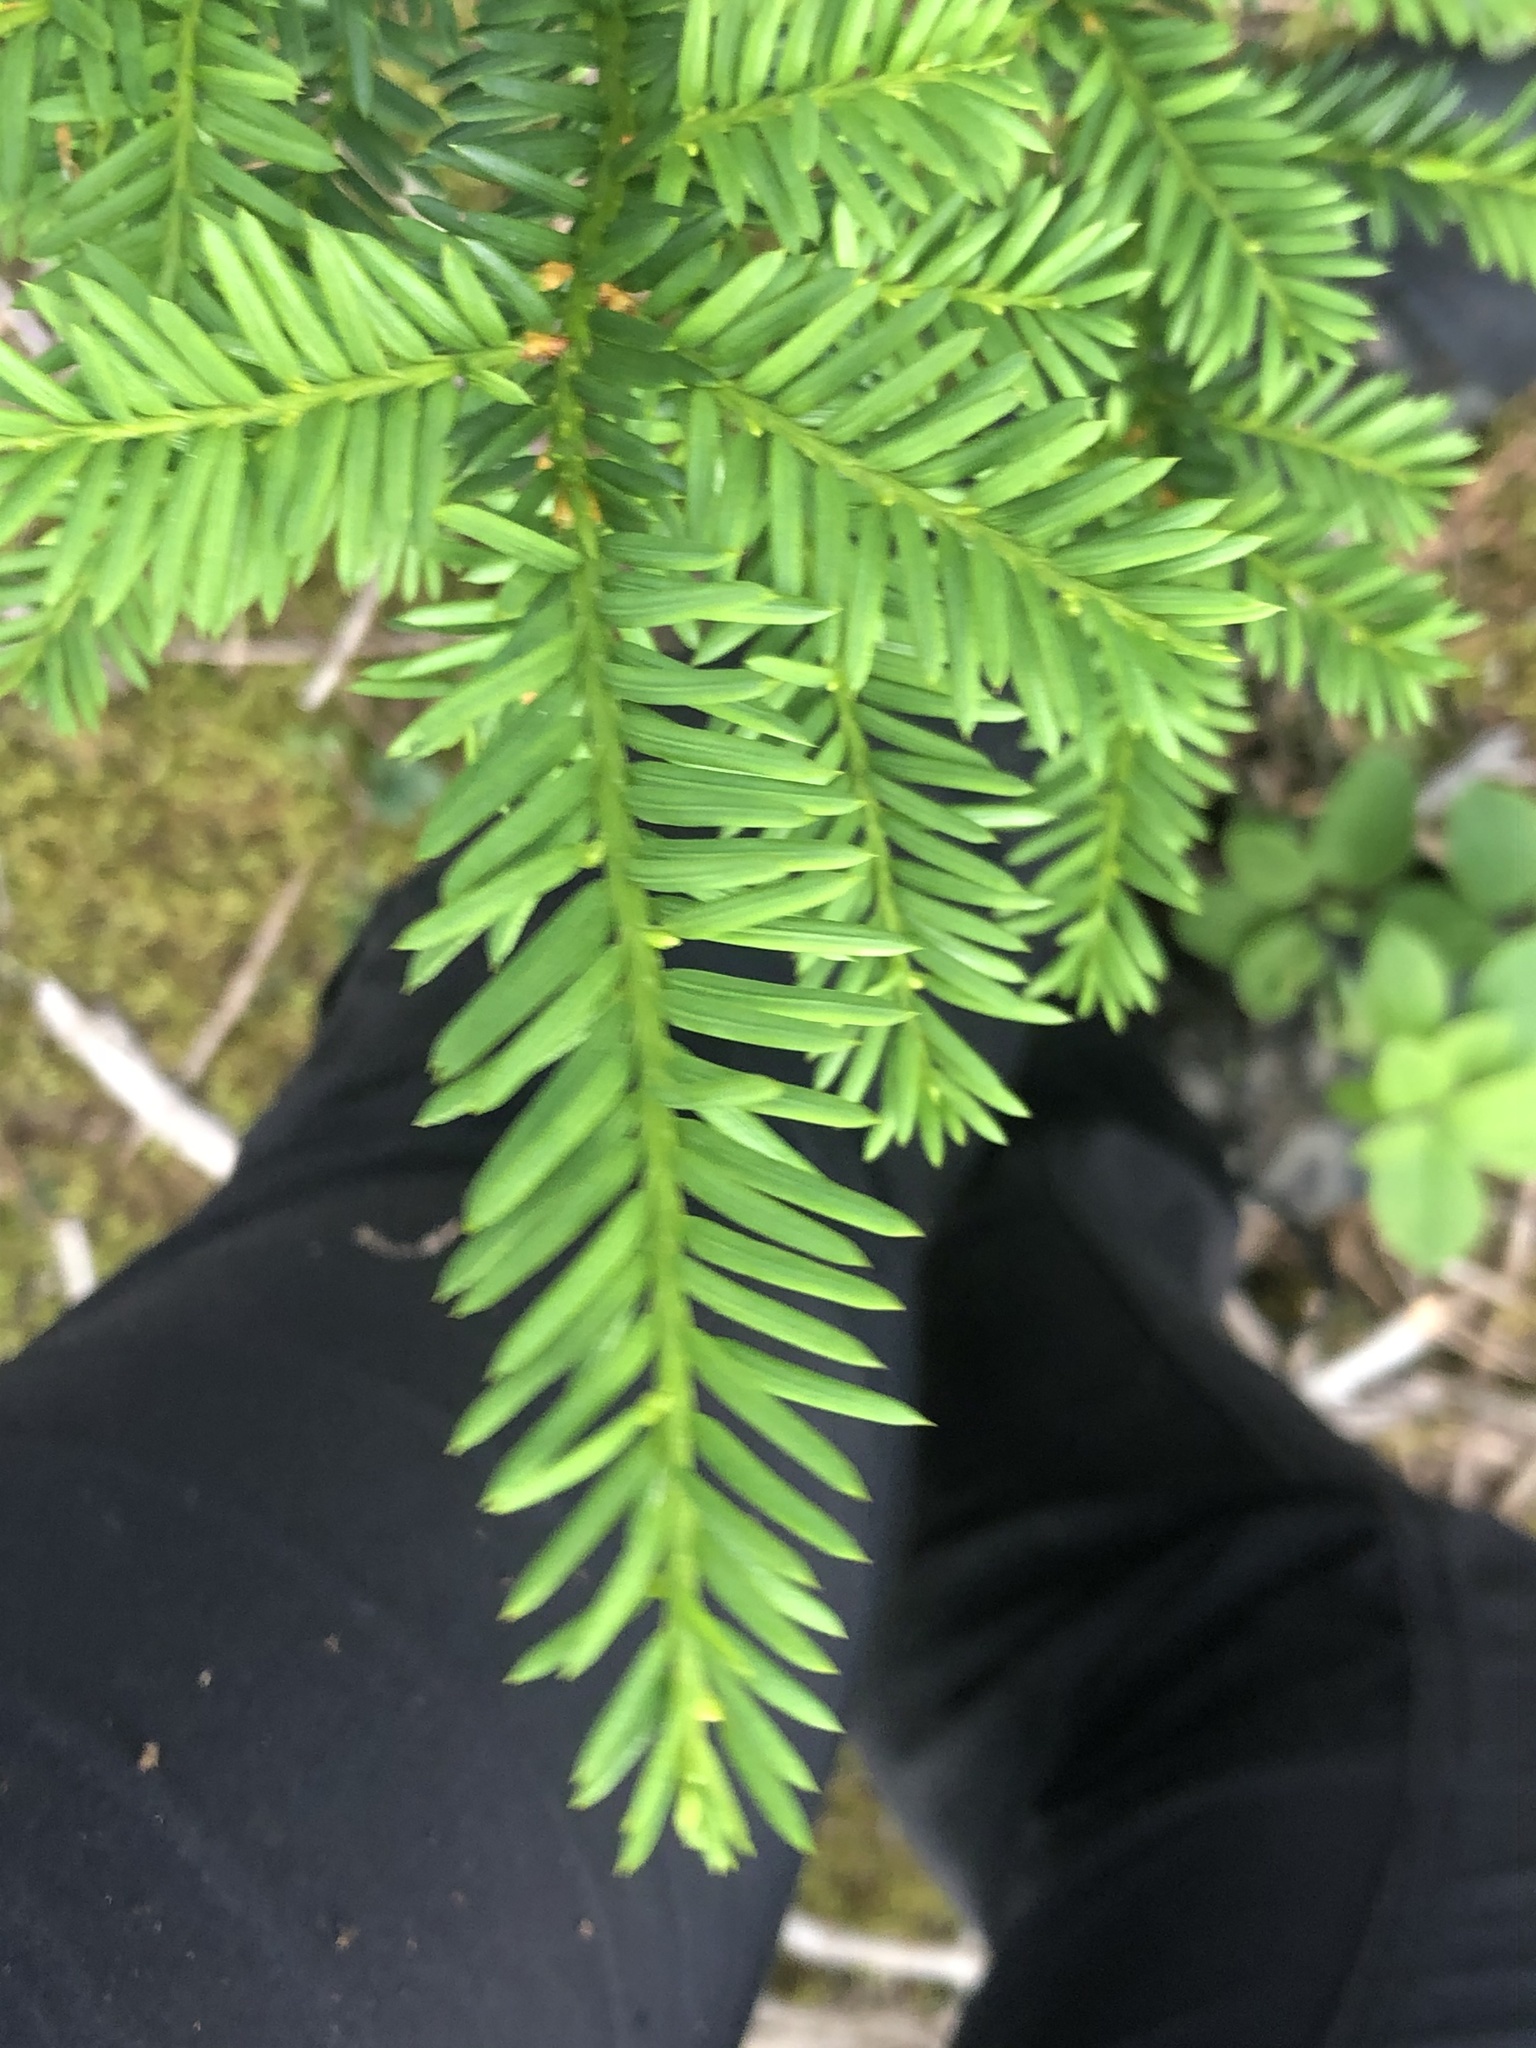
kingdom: Plantae
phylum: Tracheophyta
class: Pinopsida
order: Pinales
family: Taxaceae
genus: Taxus
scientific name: Taxus canadensis
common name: American yew
